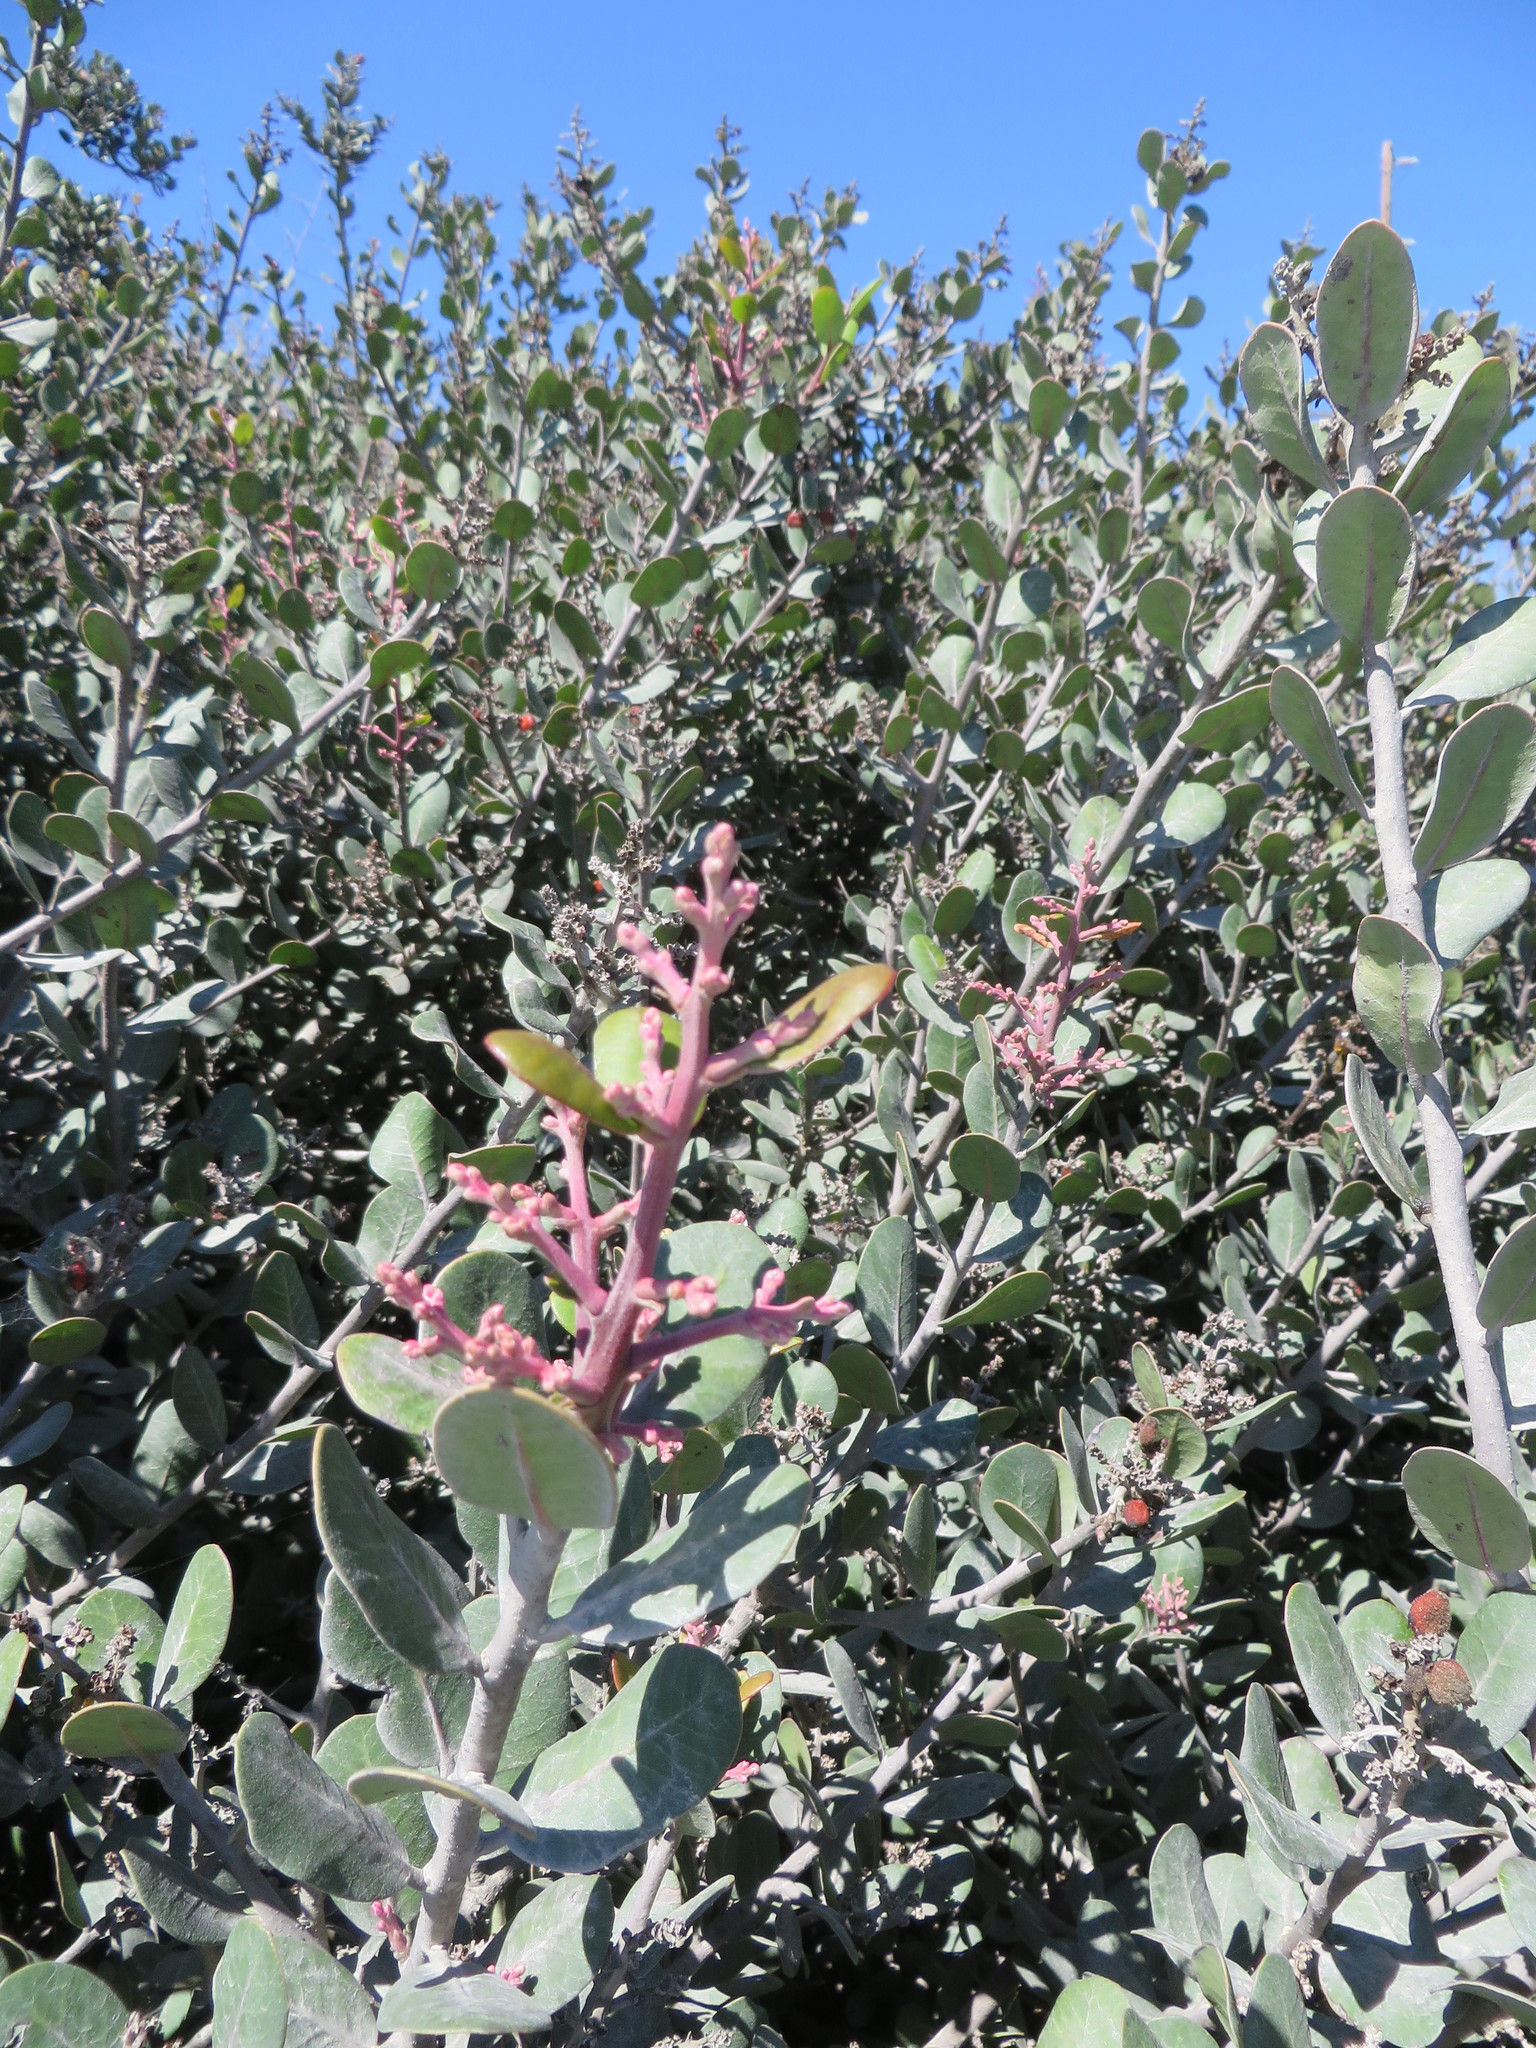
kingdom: Plantae
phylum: Tracheophyta
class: Magnoliopsida
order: Sapindales
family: Anacardiaceae
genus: Rhus
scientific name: Rhus integrifolia
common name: Lemonade sumac
